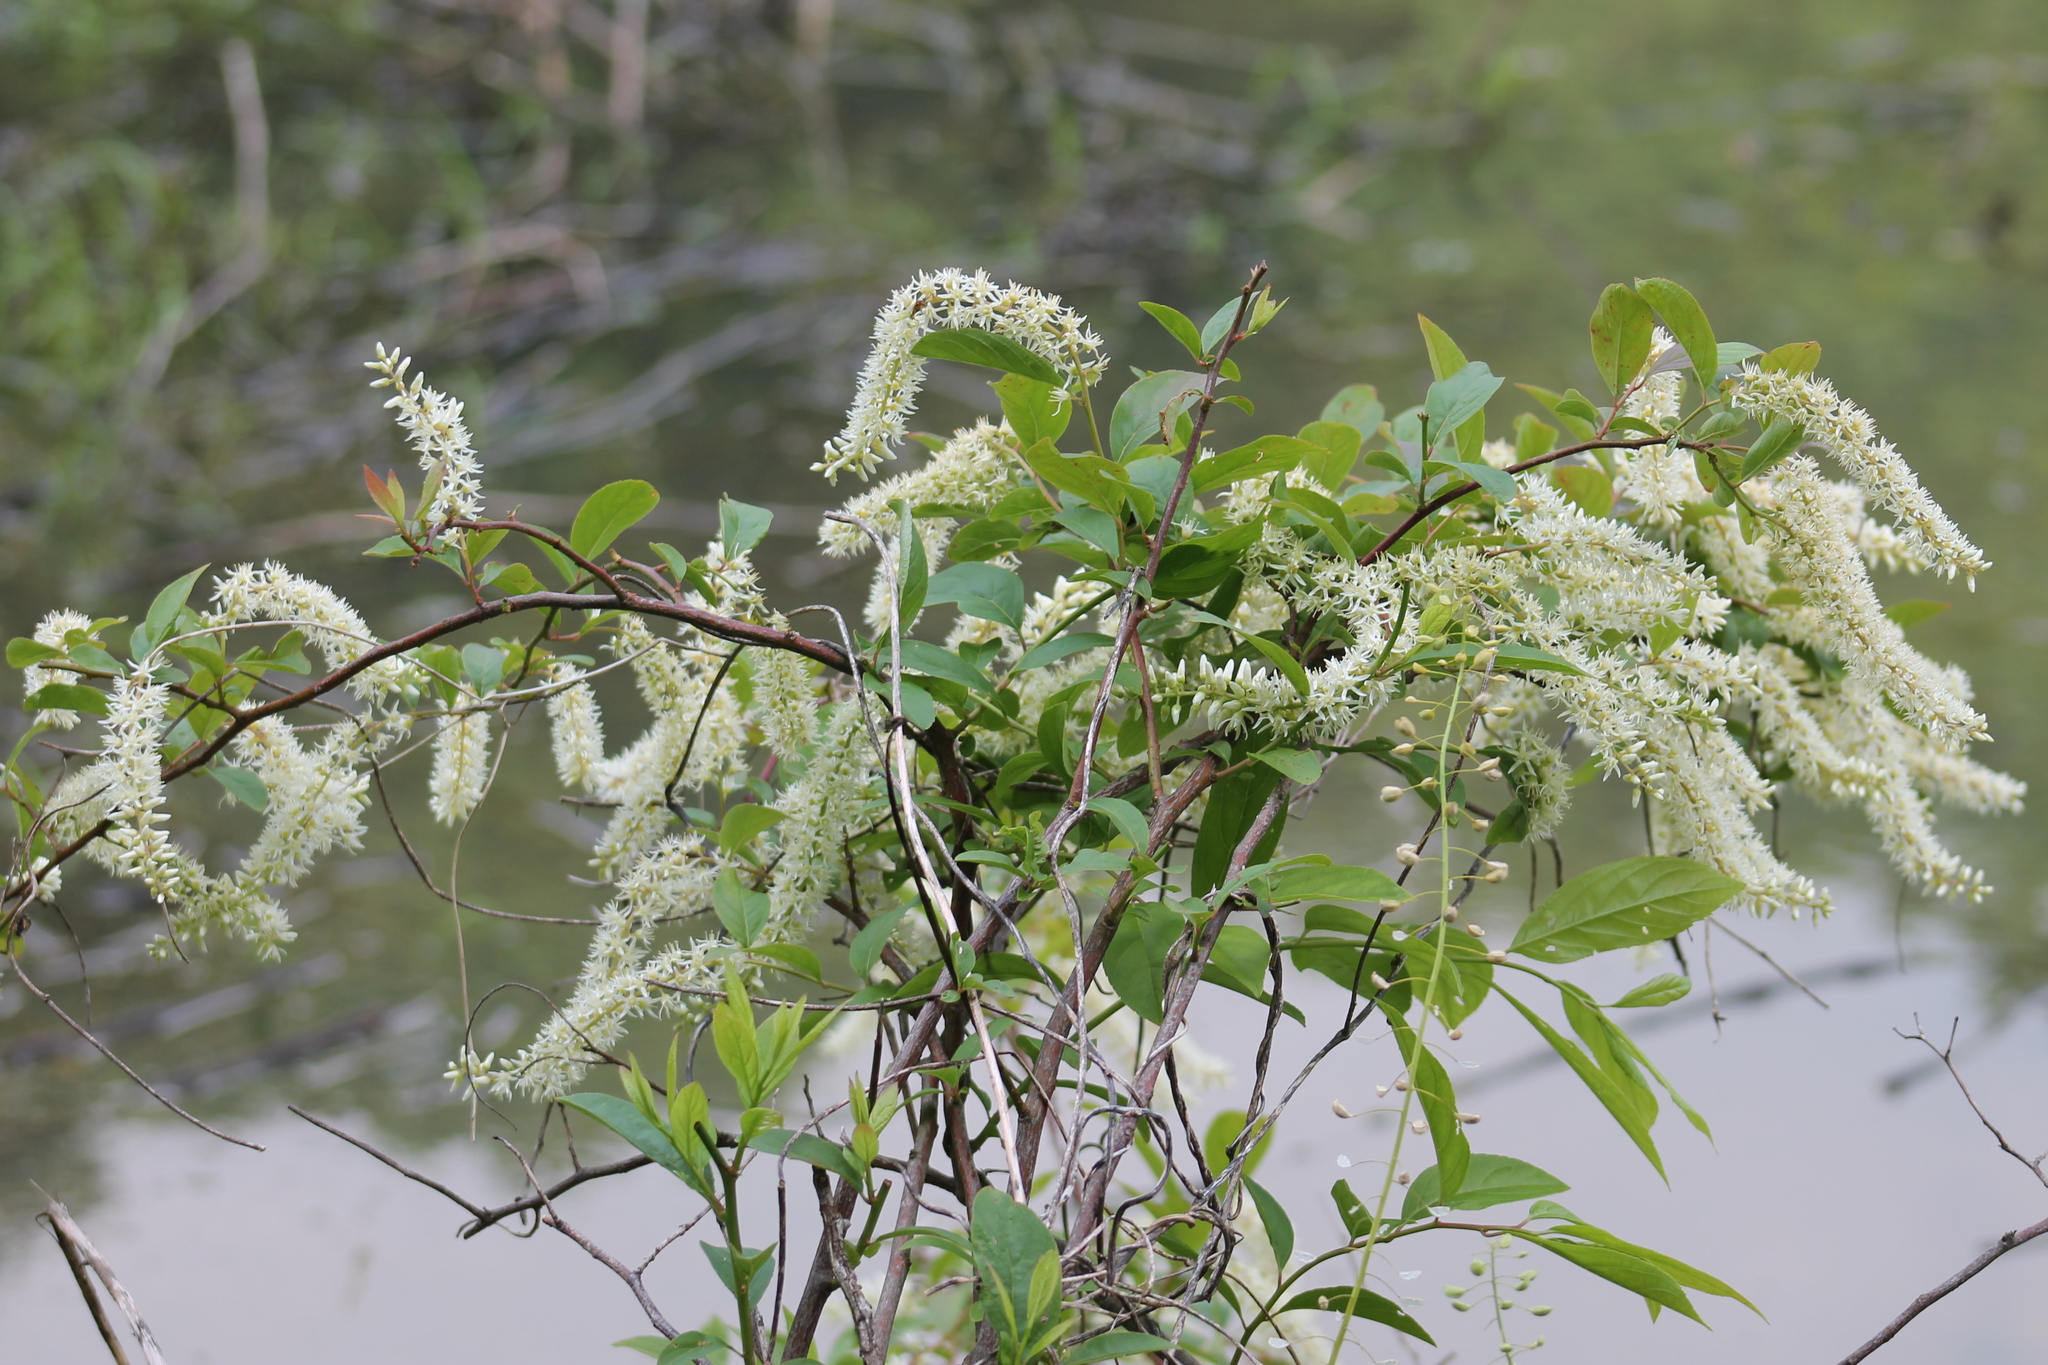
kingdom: Plantae
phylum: Tracheophyta
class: Magnoliopsida
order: Saxifragales
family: Iteaceae
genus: Itea
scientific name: Itea virginica
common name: Sweetspire
